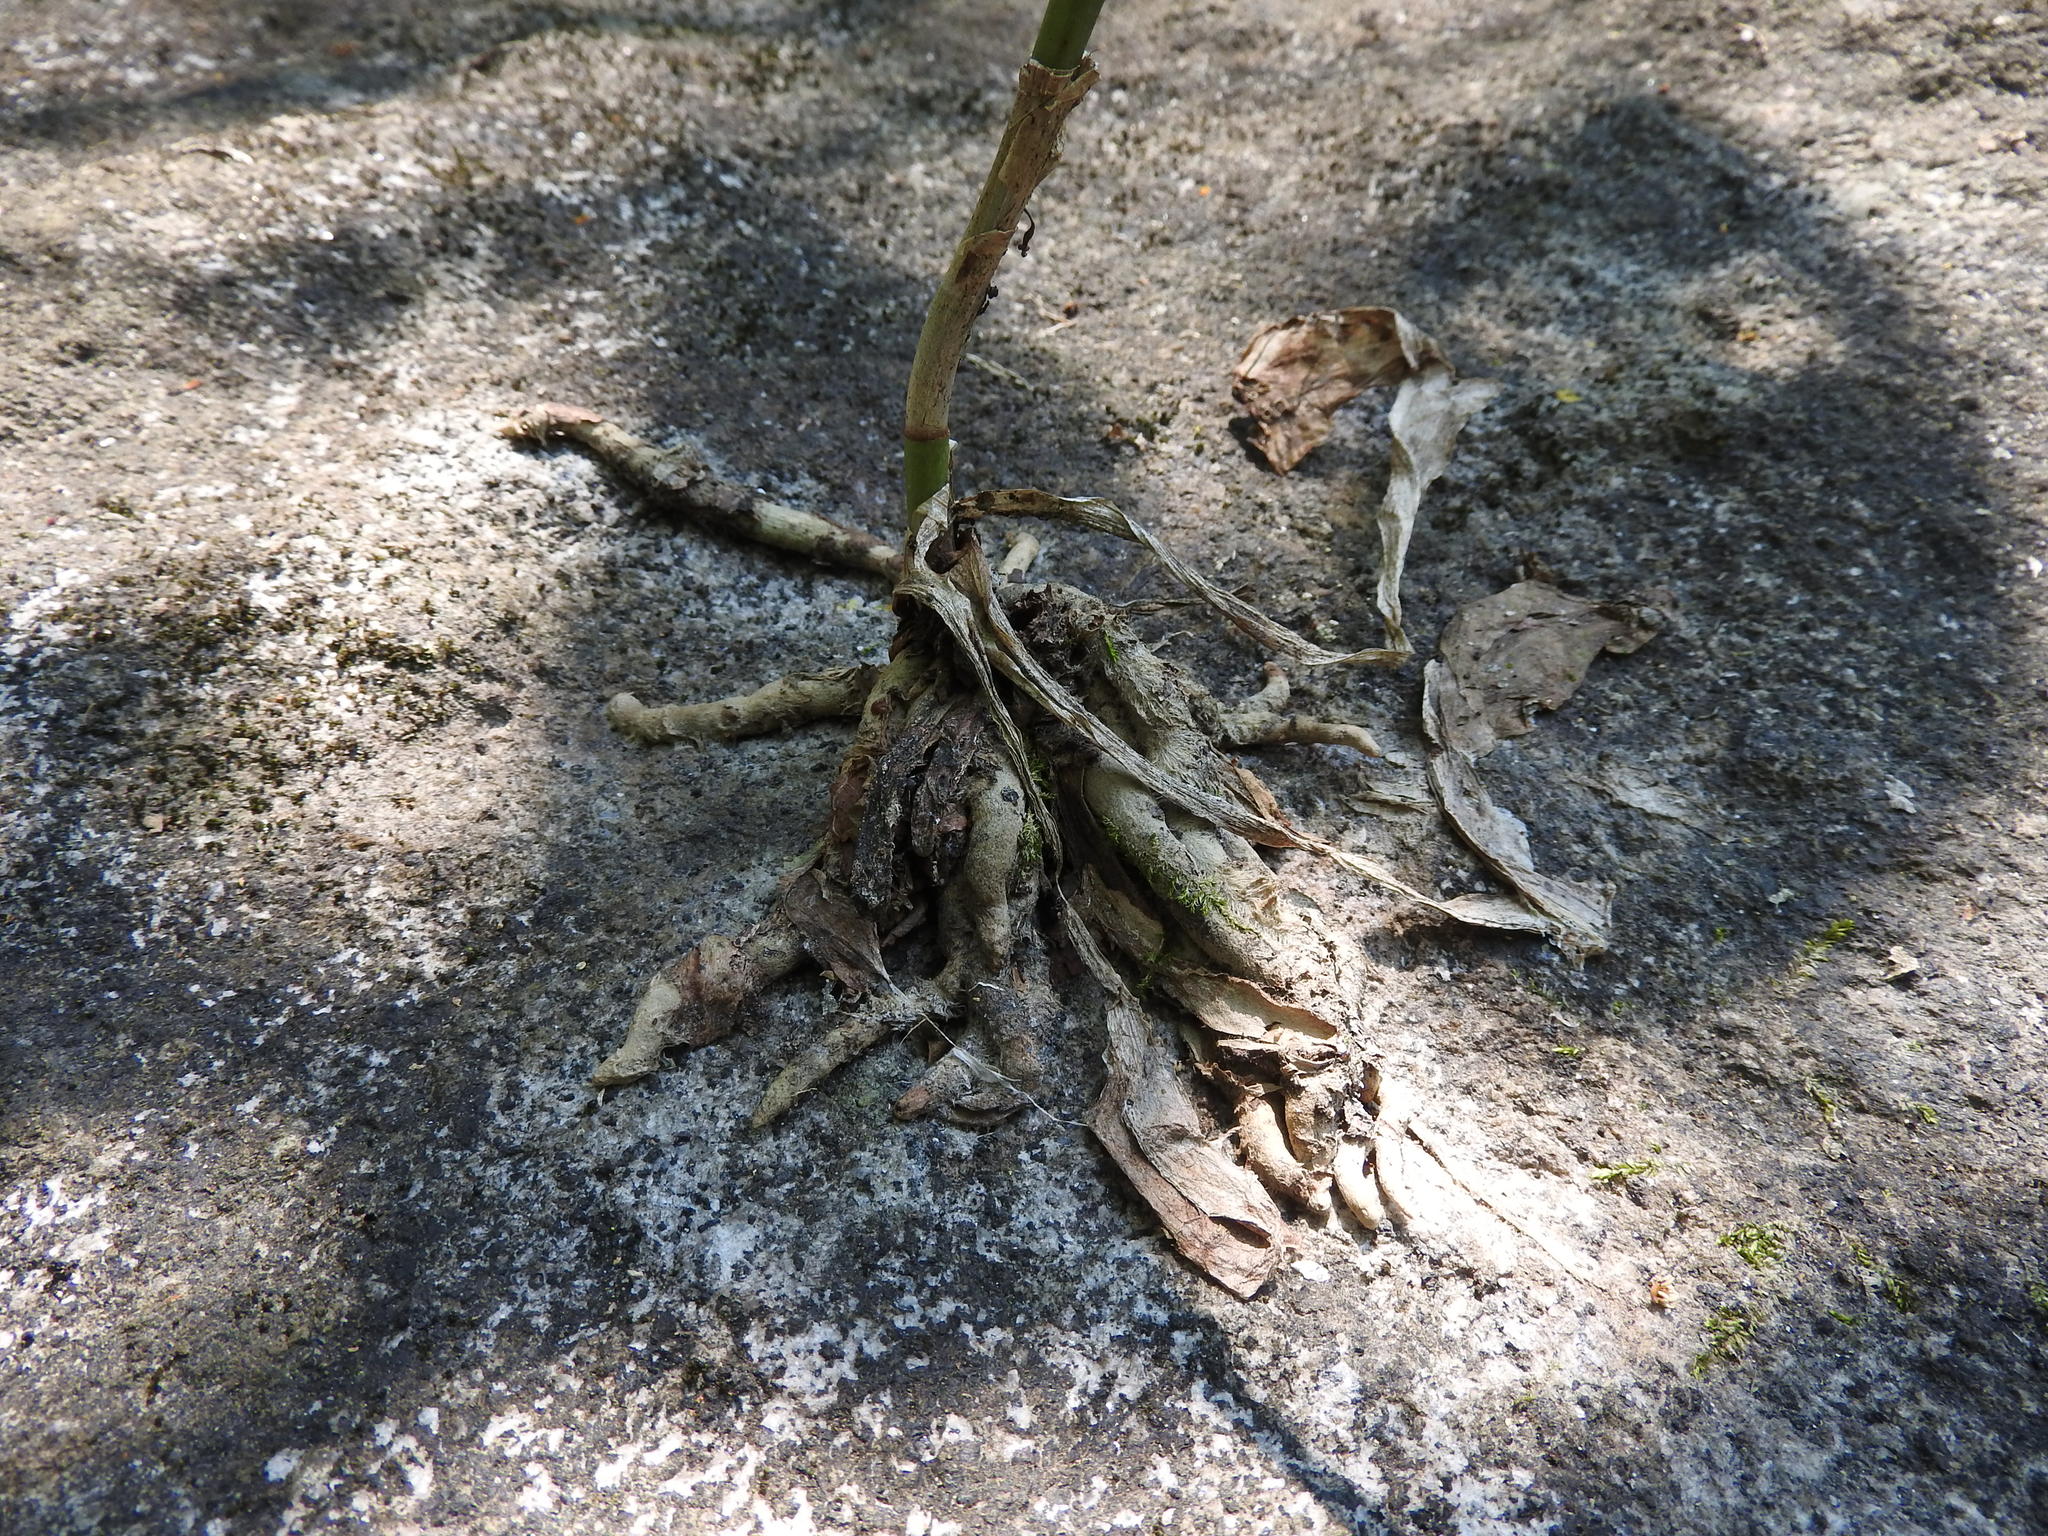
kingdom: Plantae
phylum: Tracheophyta
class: Liliopsida
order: Asparagales
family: Orchidaceae
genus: Aulosepalum
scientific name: Aulosepalum hemichrea
